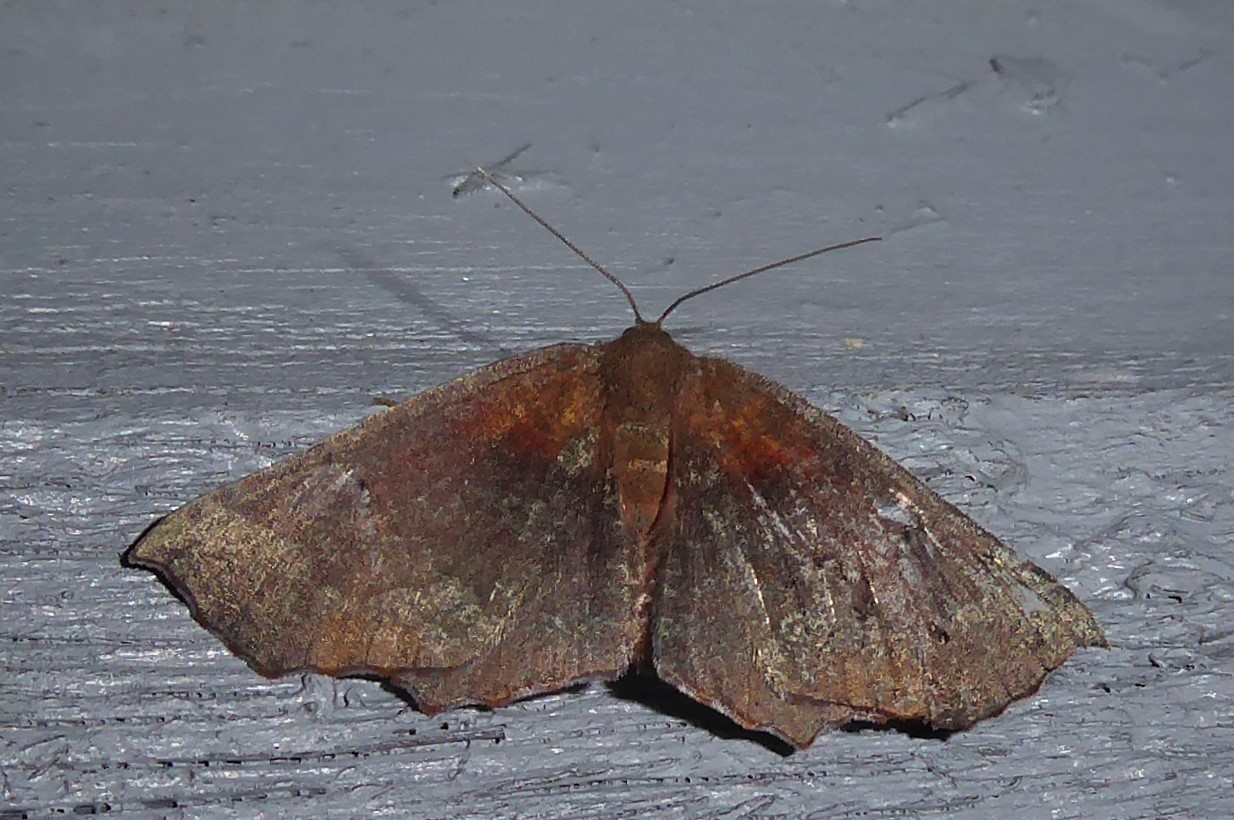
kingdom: Animalia
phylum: Arthropoda
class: Insecta
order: Lepidoptera
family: Geometridae
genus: Xyridacma
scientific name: Xyridacma ustaria
